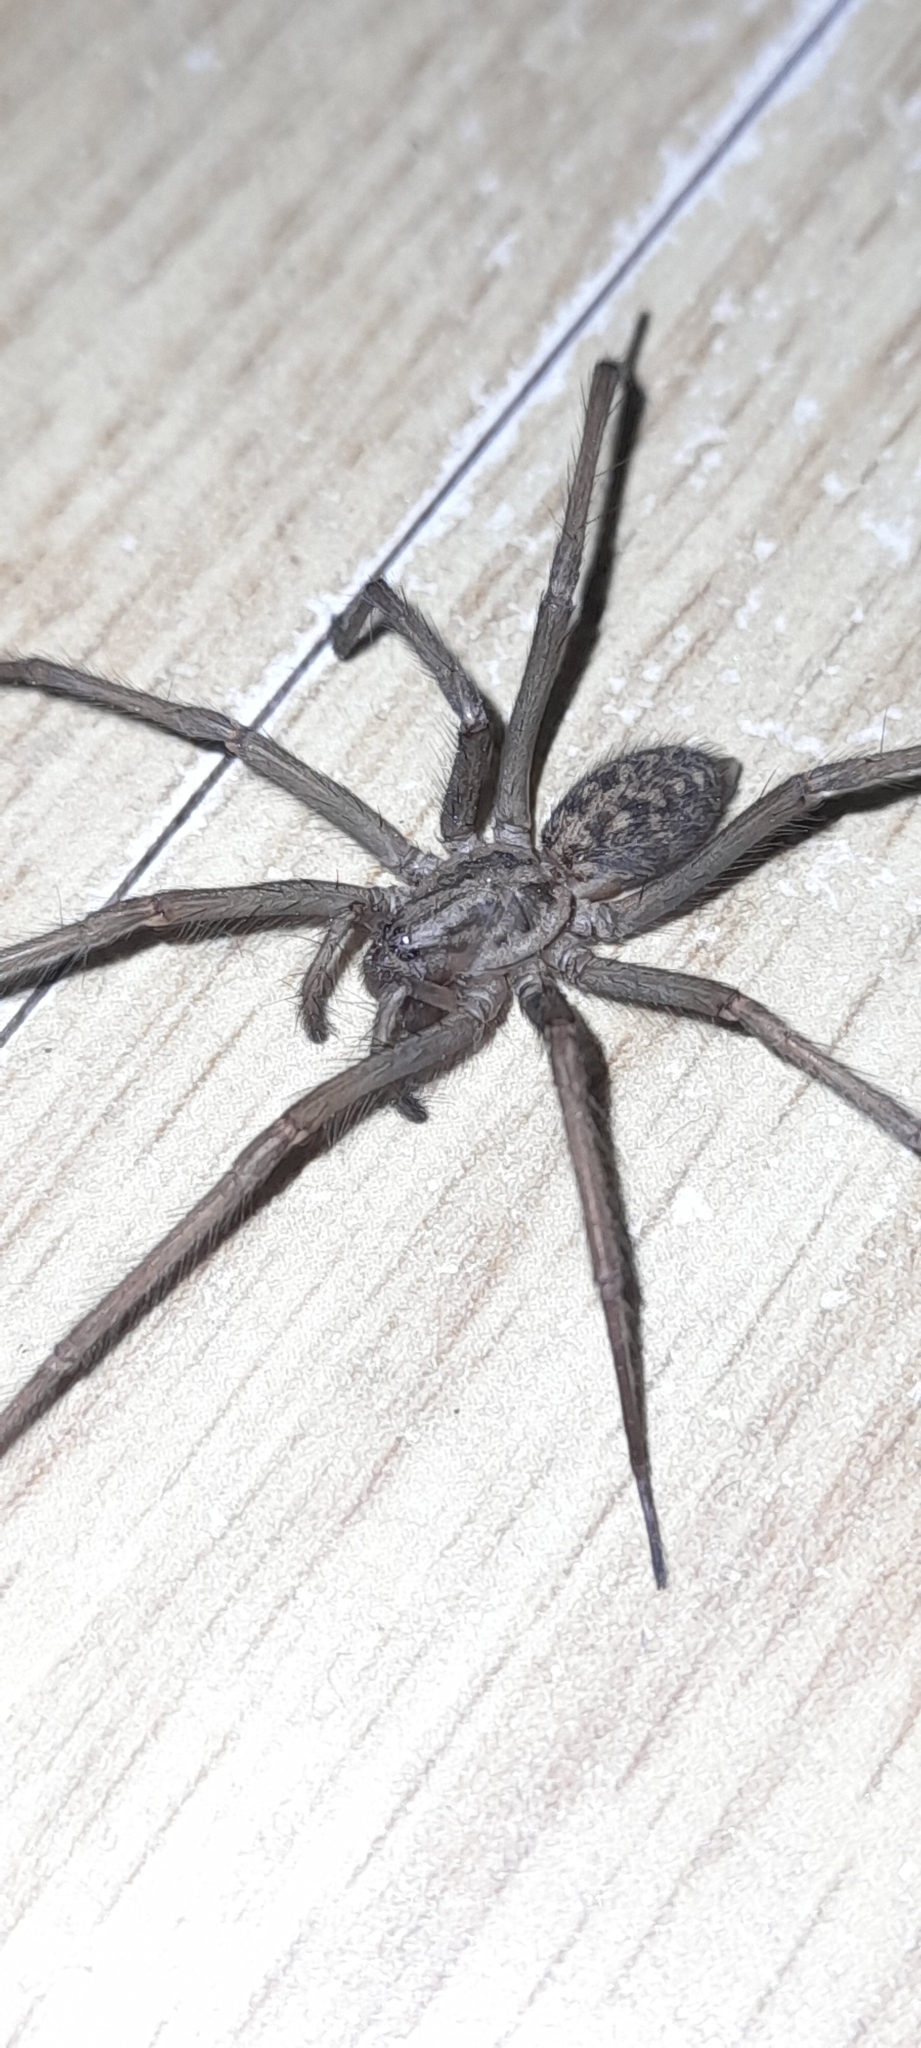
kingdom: Animalia
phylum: Arthropoda
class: Arachnida
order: Araneae
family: Agelenidae
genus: Eratigena
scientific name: Eratigena
